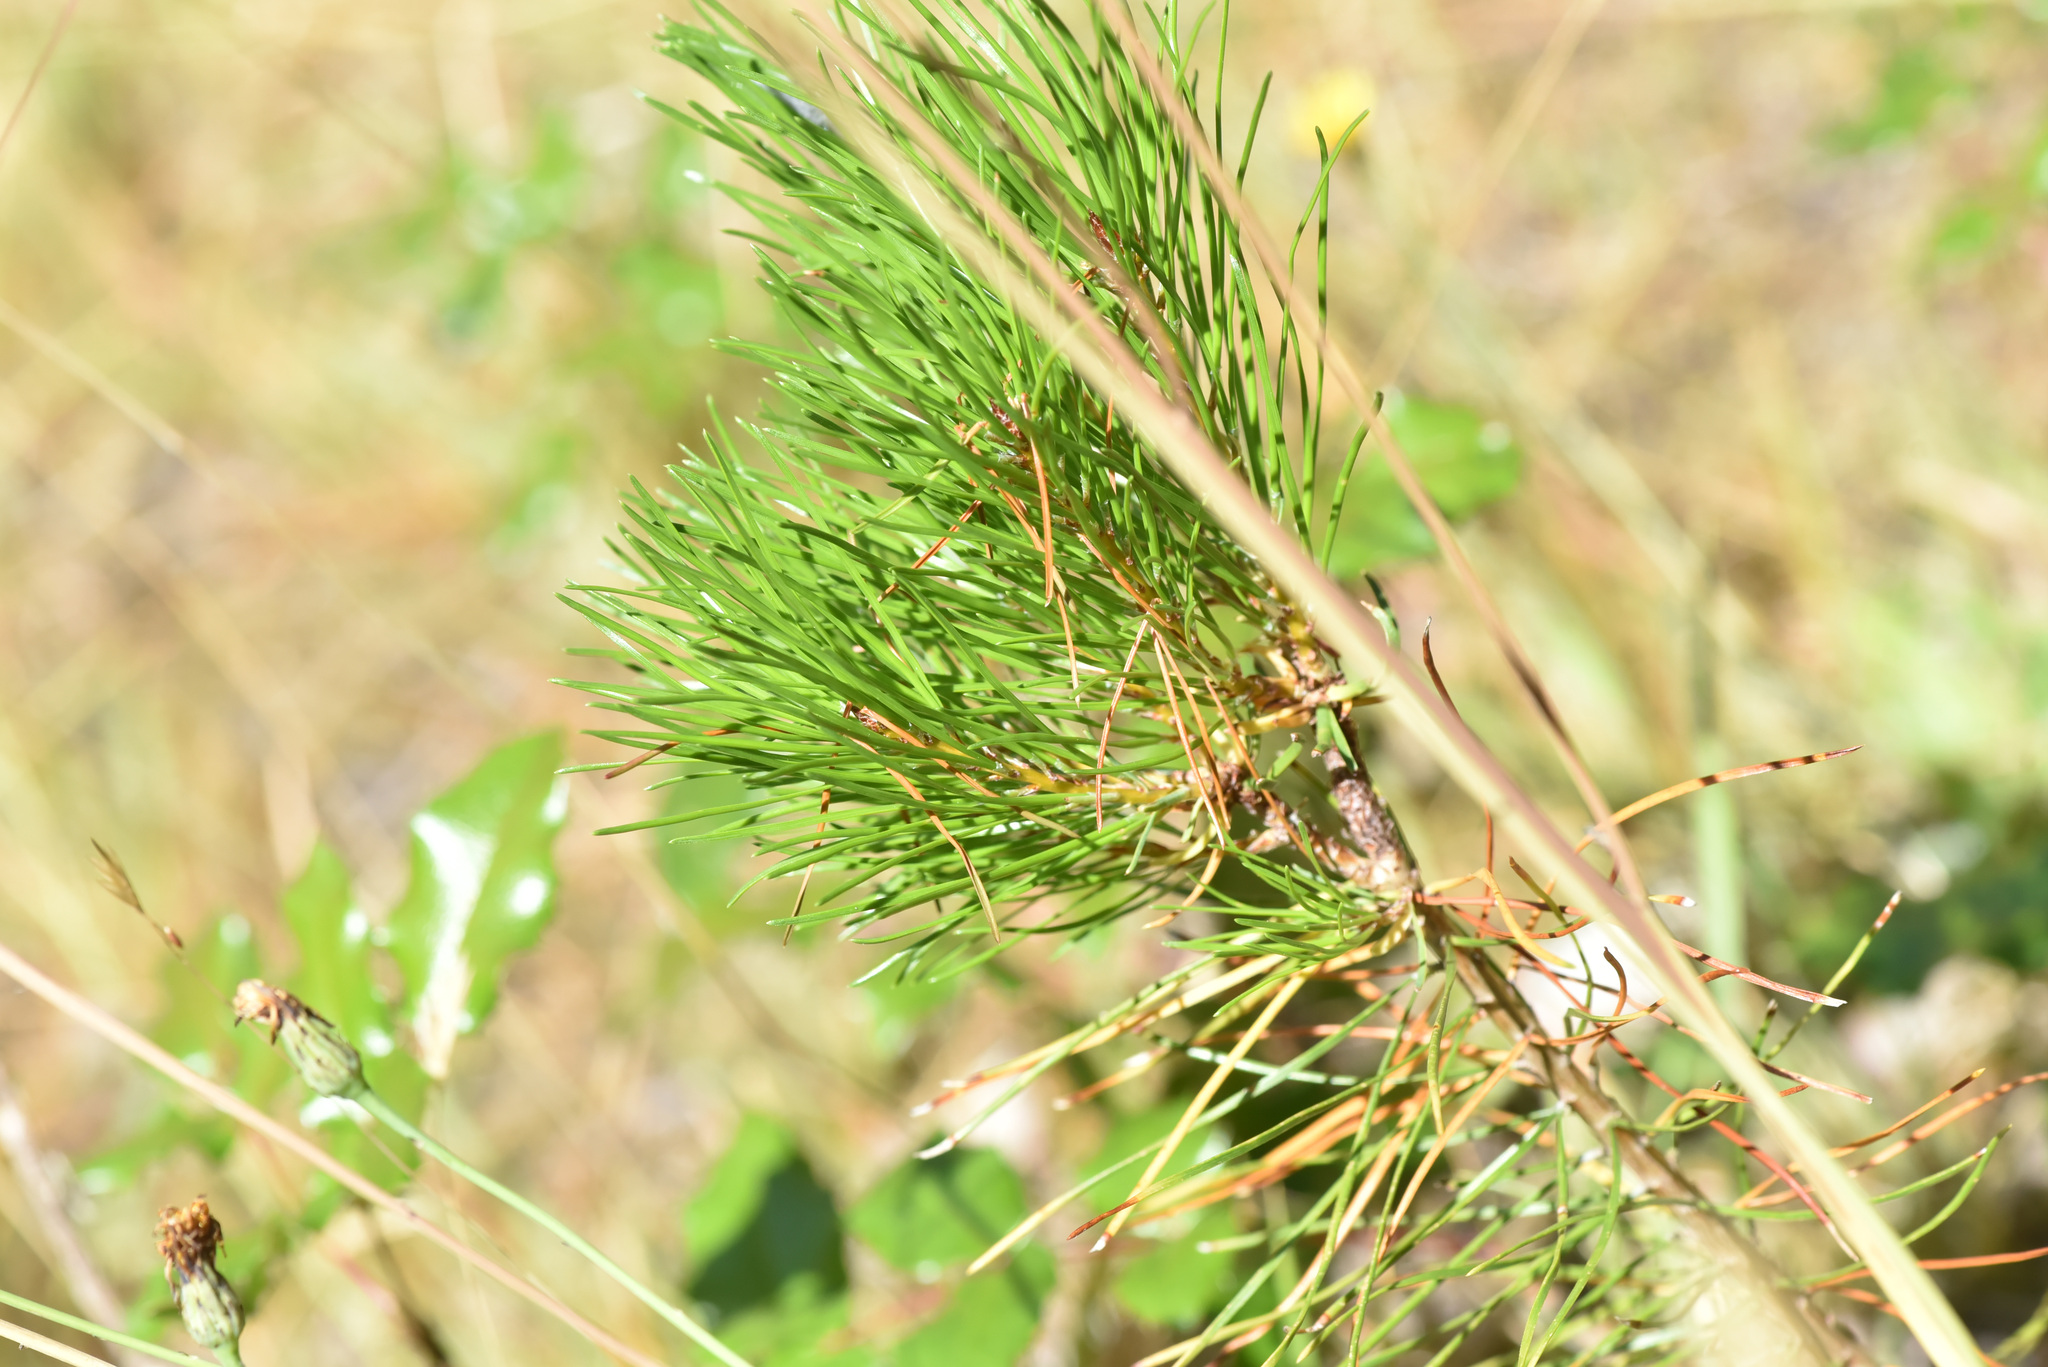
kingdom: Plantae
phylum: Tracheophyta
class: Pinopsida
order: Pinales
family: Pinaceae
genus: Pinus
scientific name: Pinus contorta
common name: Lodgepole pine
